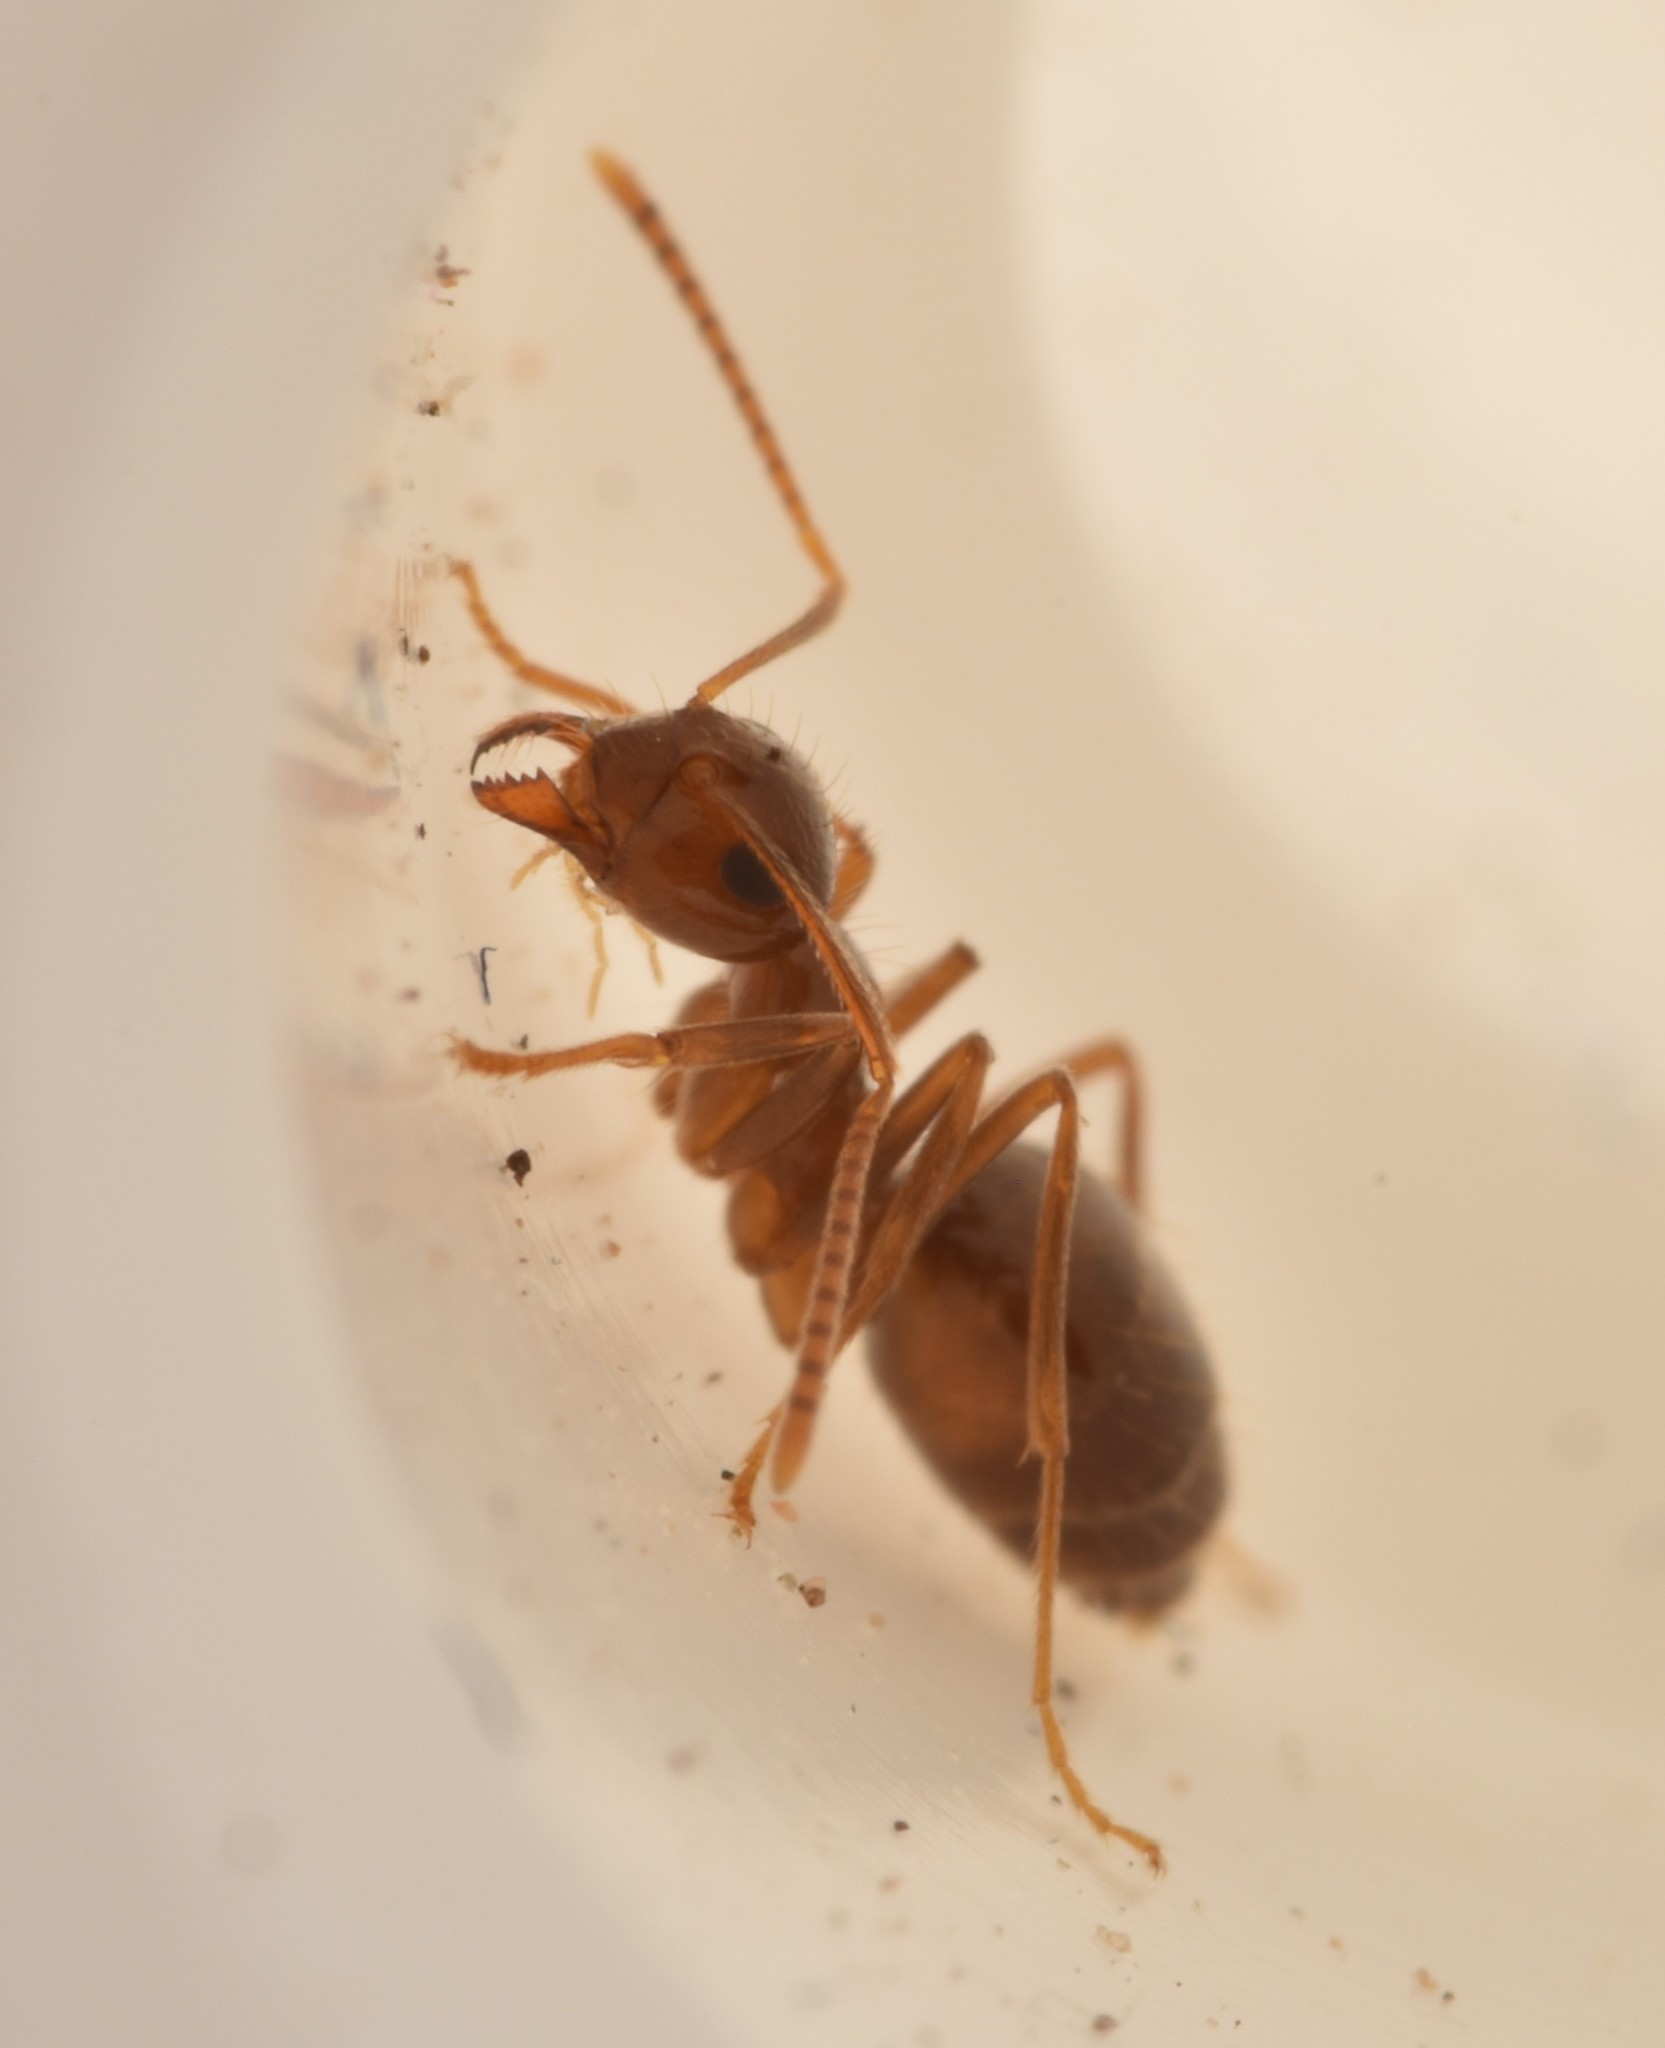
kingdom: Animalia
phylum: Arthropoda
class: Insecta
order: Hymenoptera
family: Formicidae
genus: Prenolepis
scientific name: Prenolepis imparis
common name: Small honey ant
